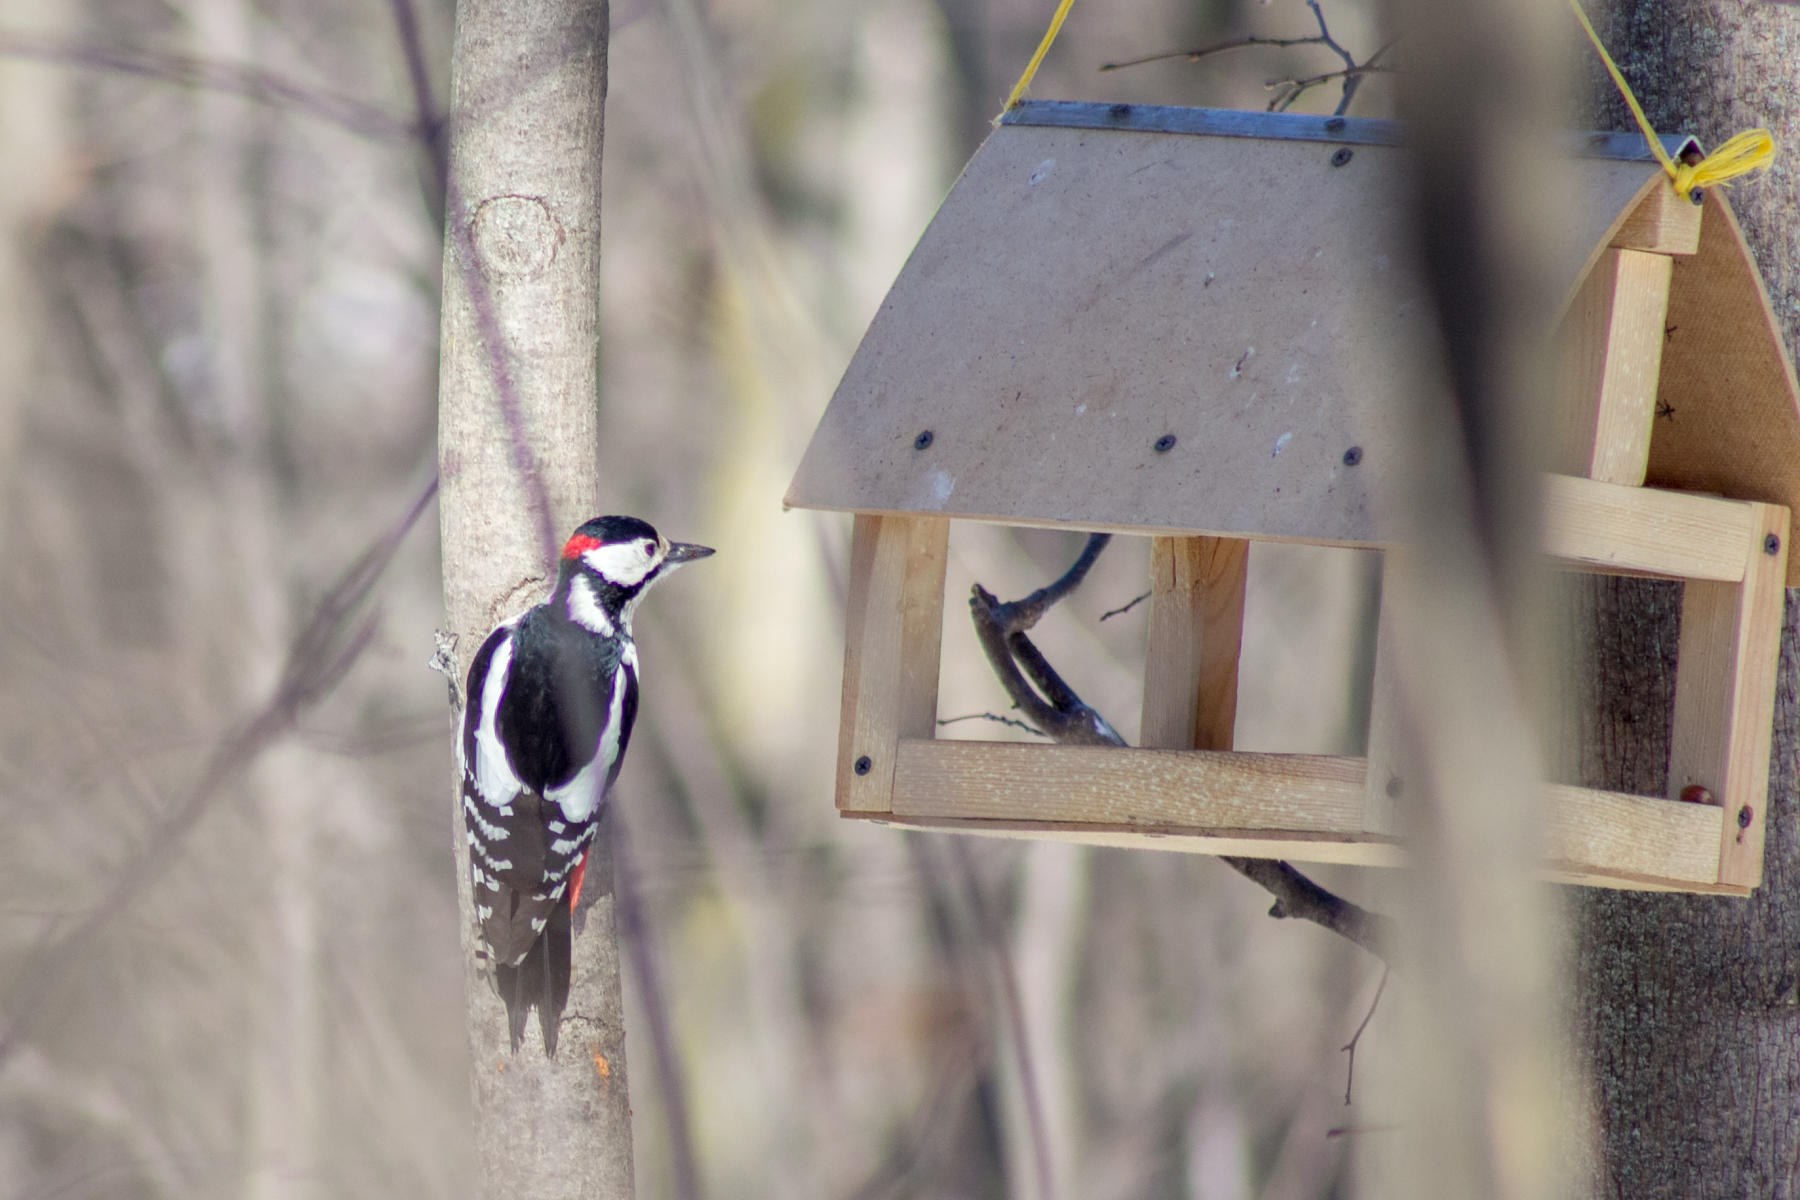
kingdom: Animalia
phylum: Chordata
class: Aves
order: Piciformes
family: Picidae
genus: Dendrocopos
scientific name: Dendrocopos major
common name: Great spotted woodpecker
